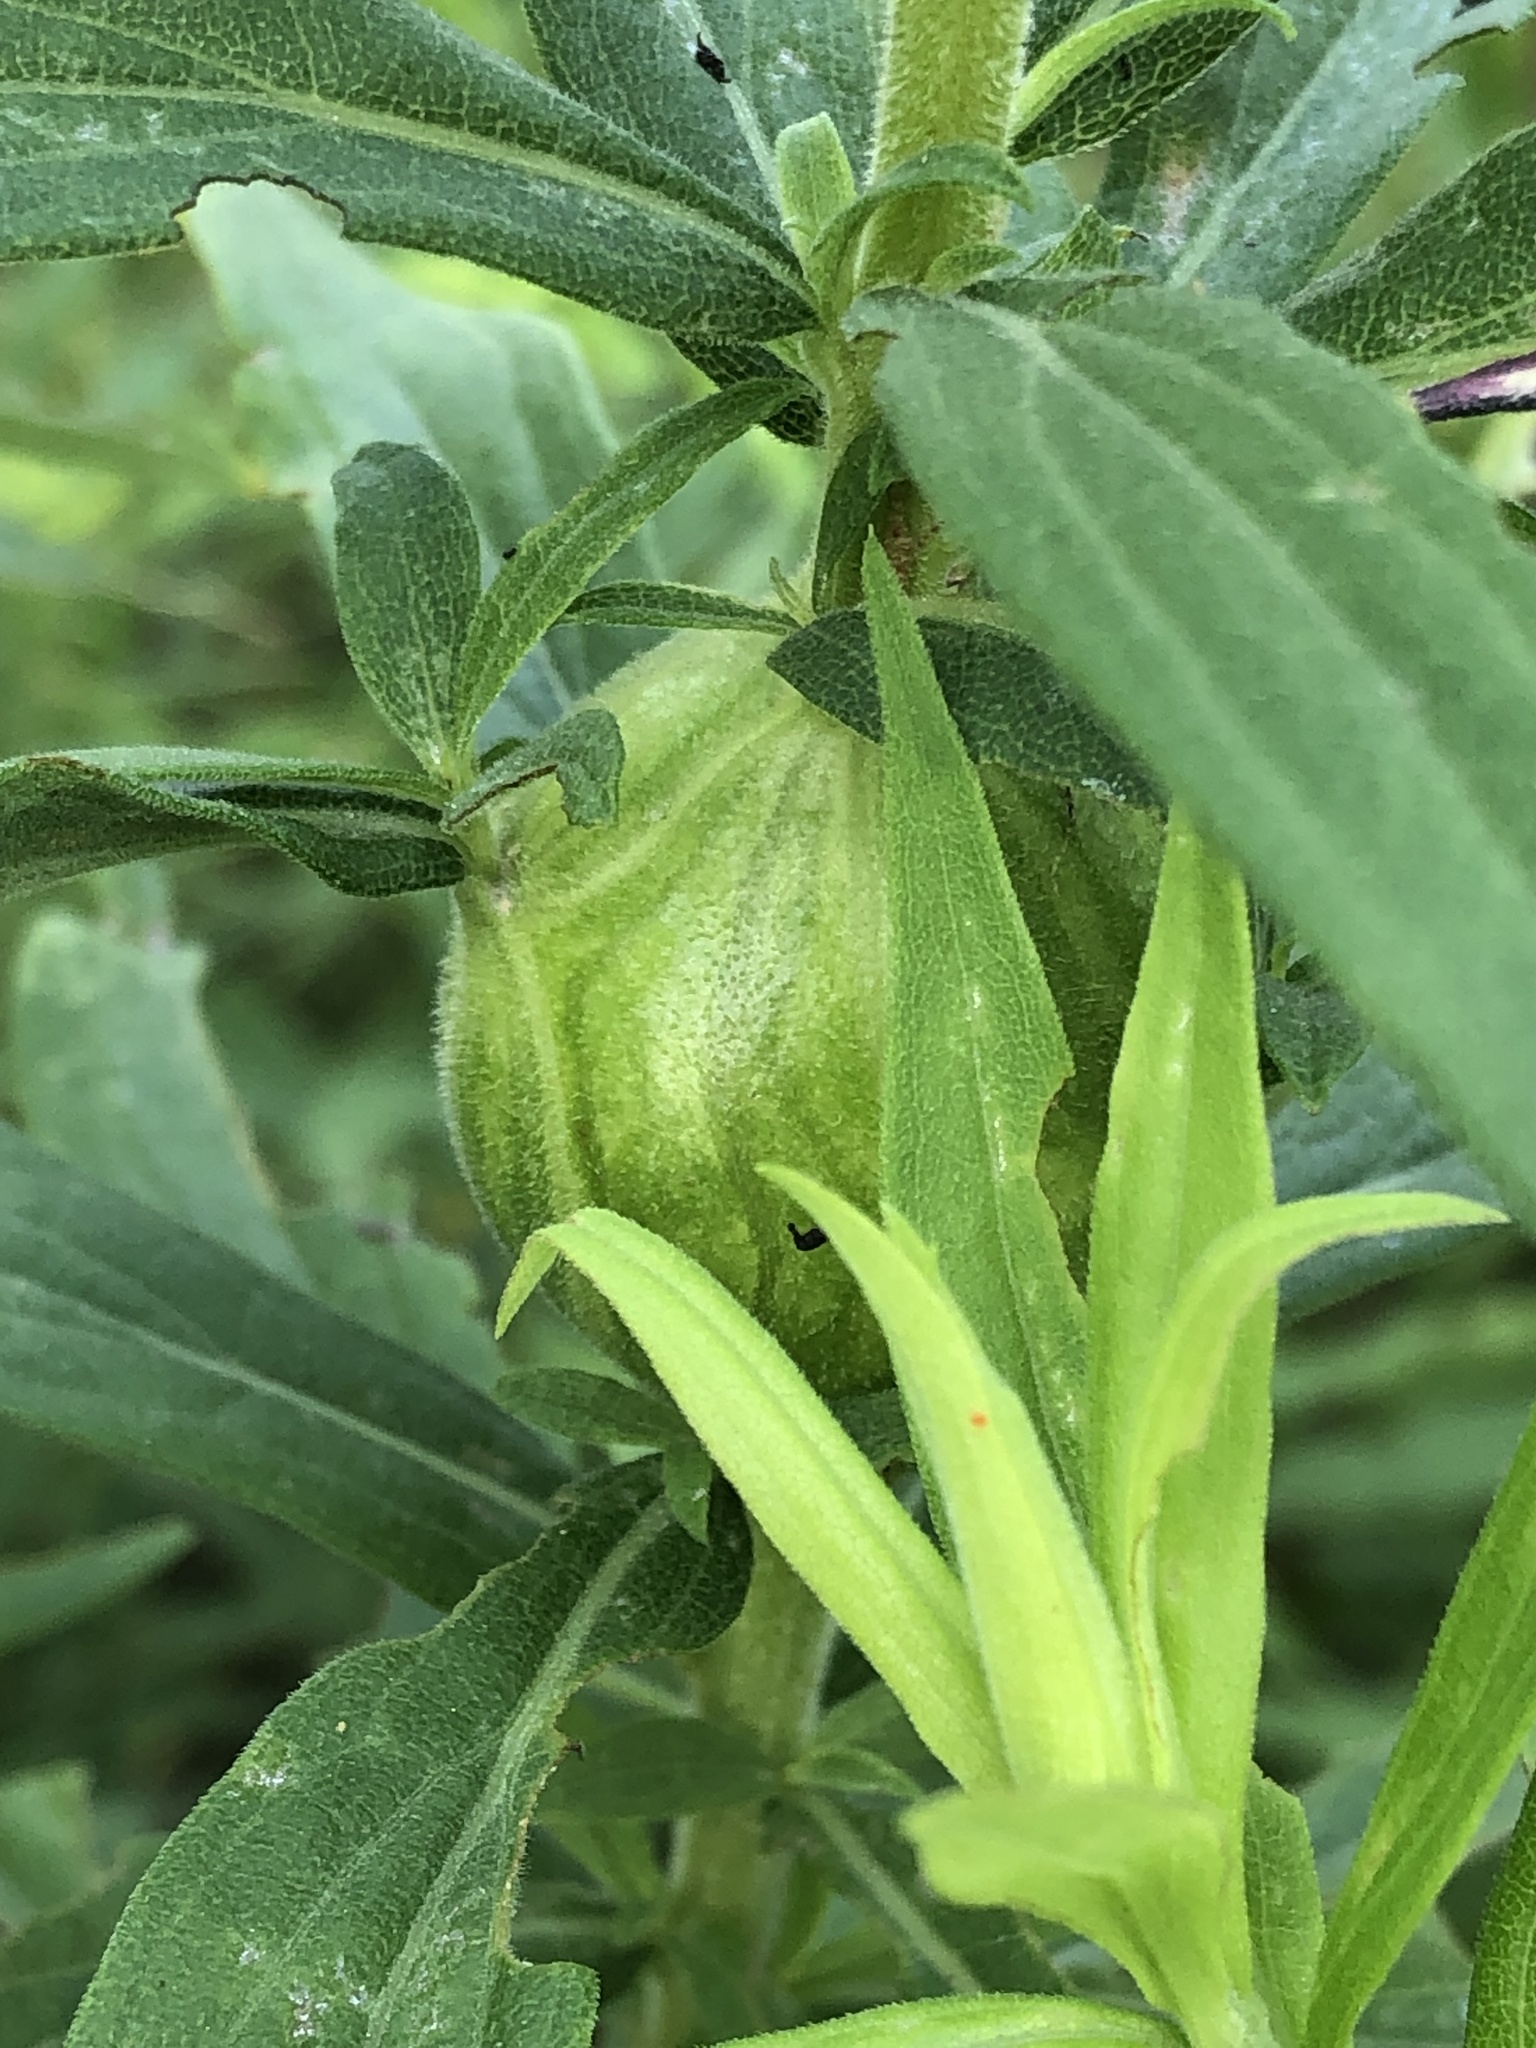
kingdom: Animalia
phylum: Arthropoda
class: Insecta
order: Diptera
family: Tephritidae
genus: Eurosta
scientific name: Eurosta solidaginis
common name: Goldenrod gall fly
